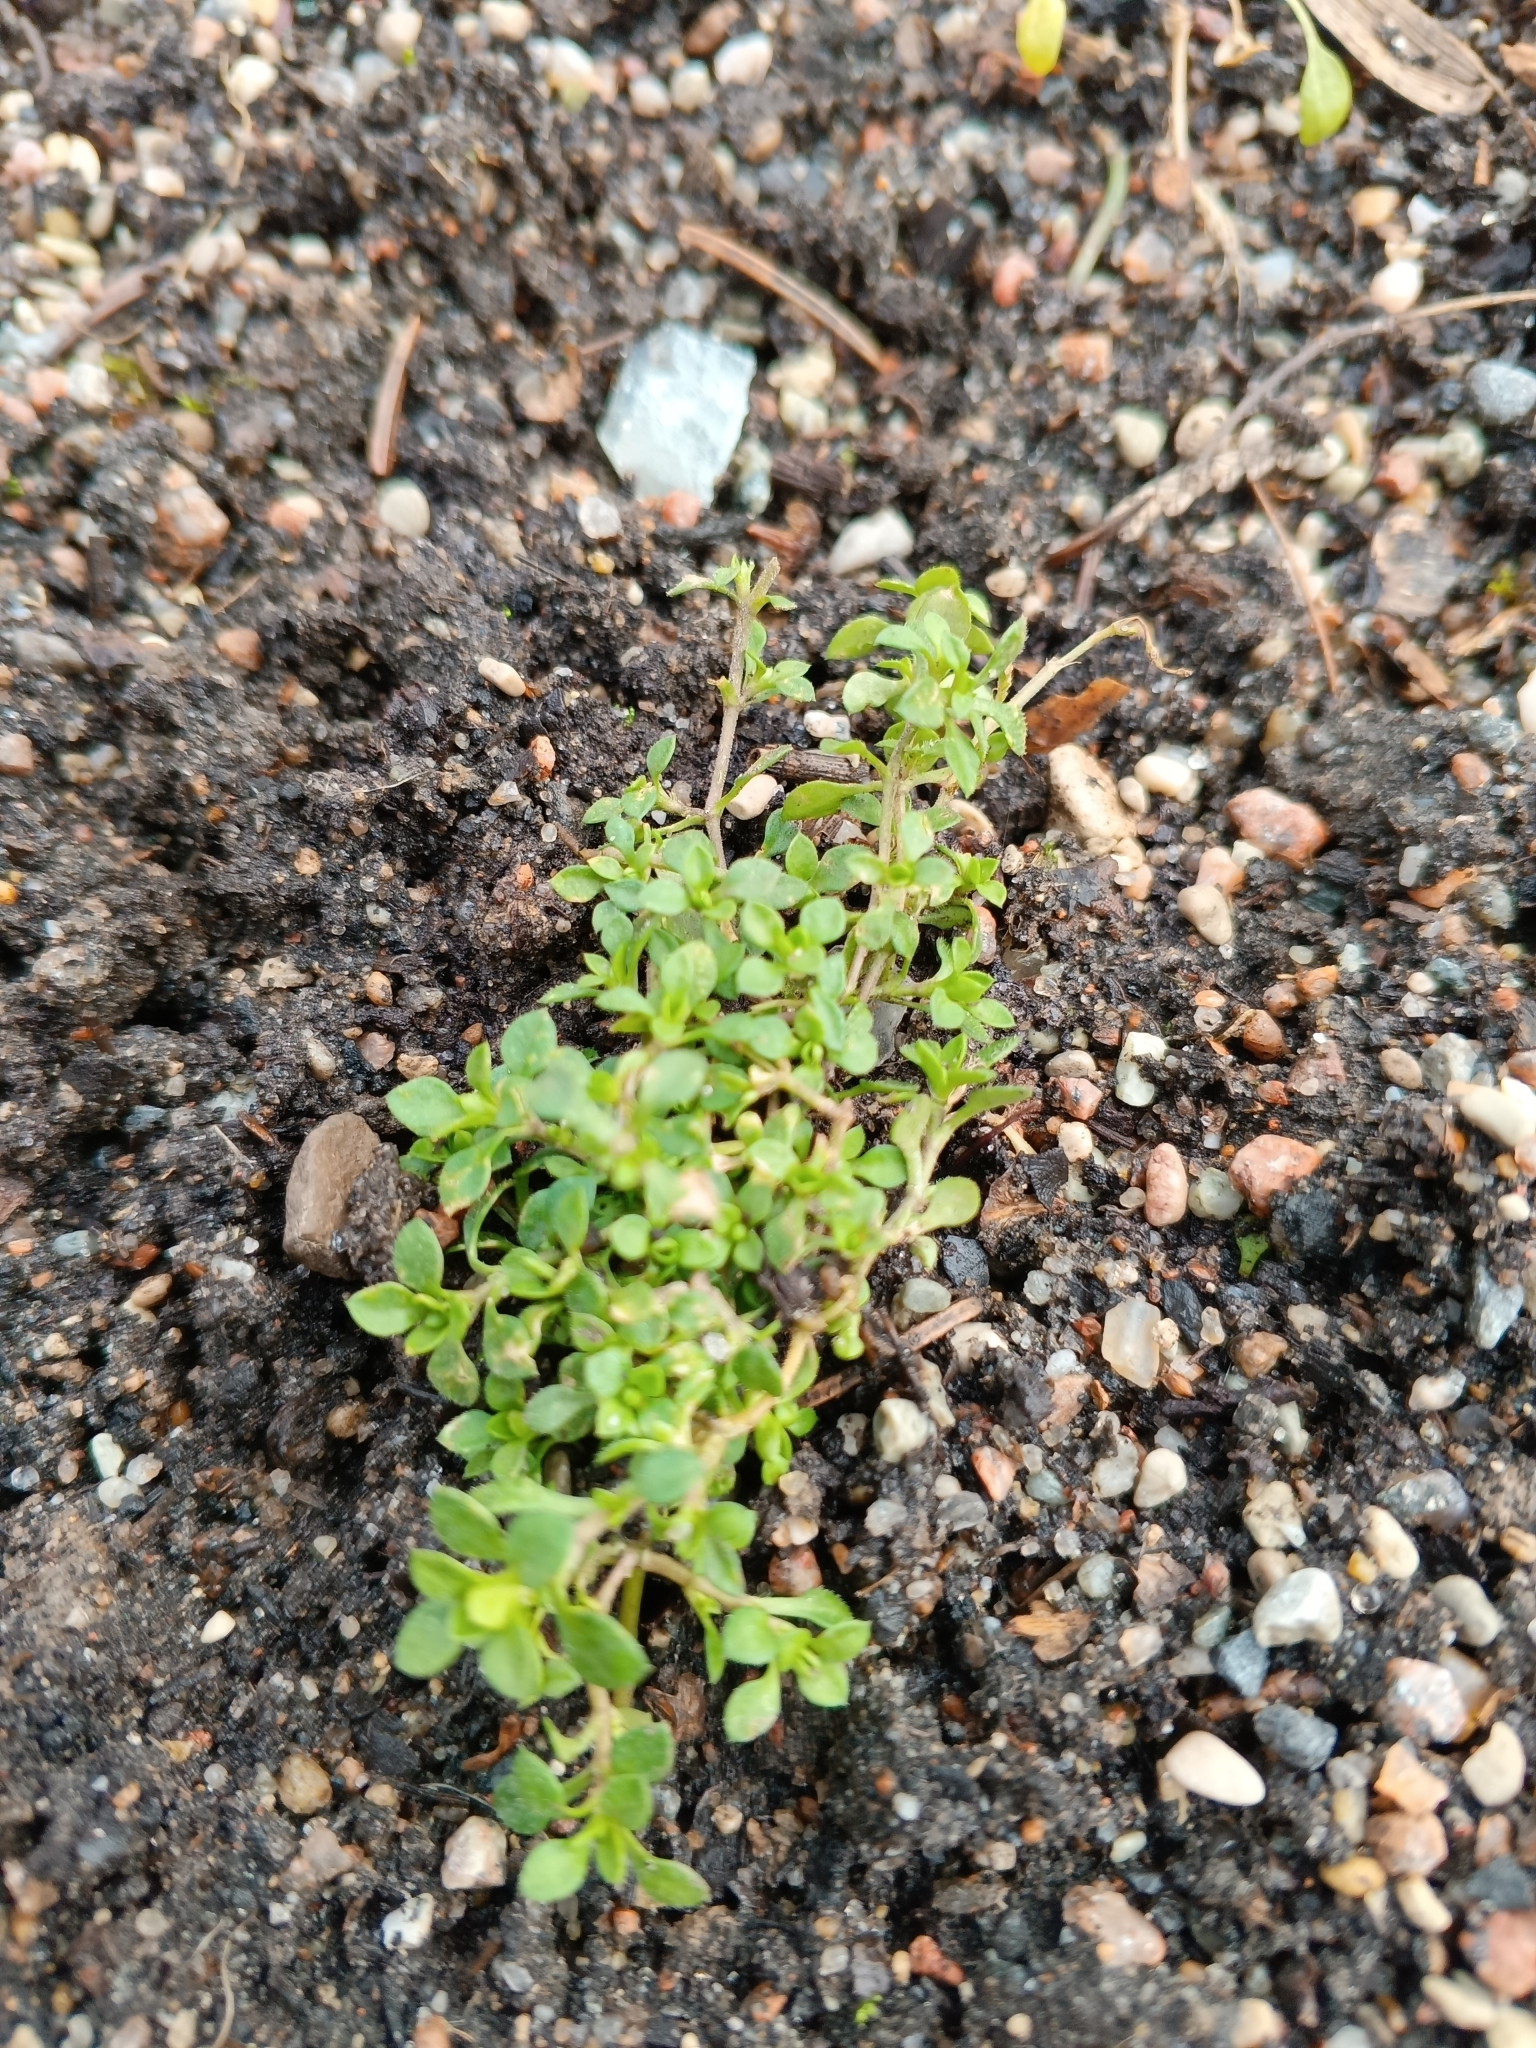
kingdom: Plantae
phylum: Tracheophyta
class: Magnoliopsida
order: Caryophyllales
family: Caryophyllaceae
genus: Stellaria
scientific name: Stellaria media
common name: Common chickweed
